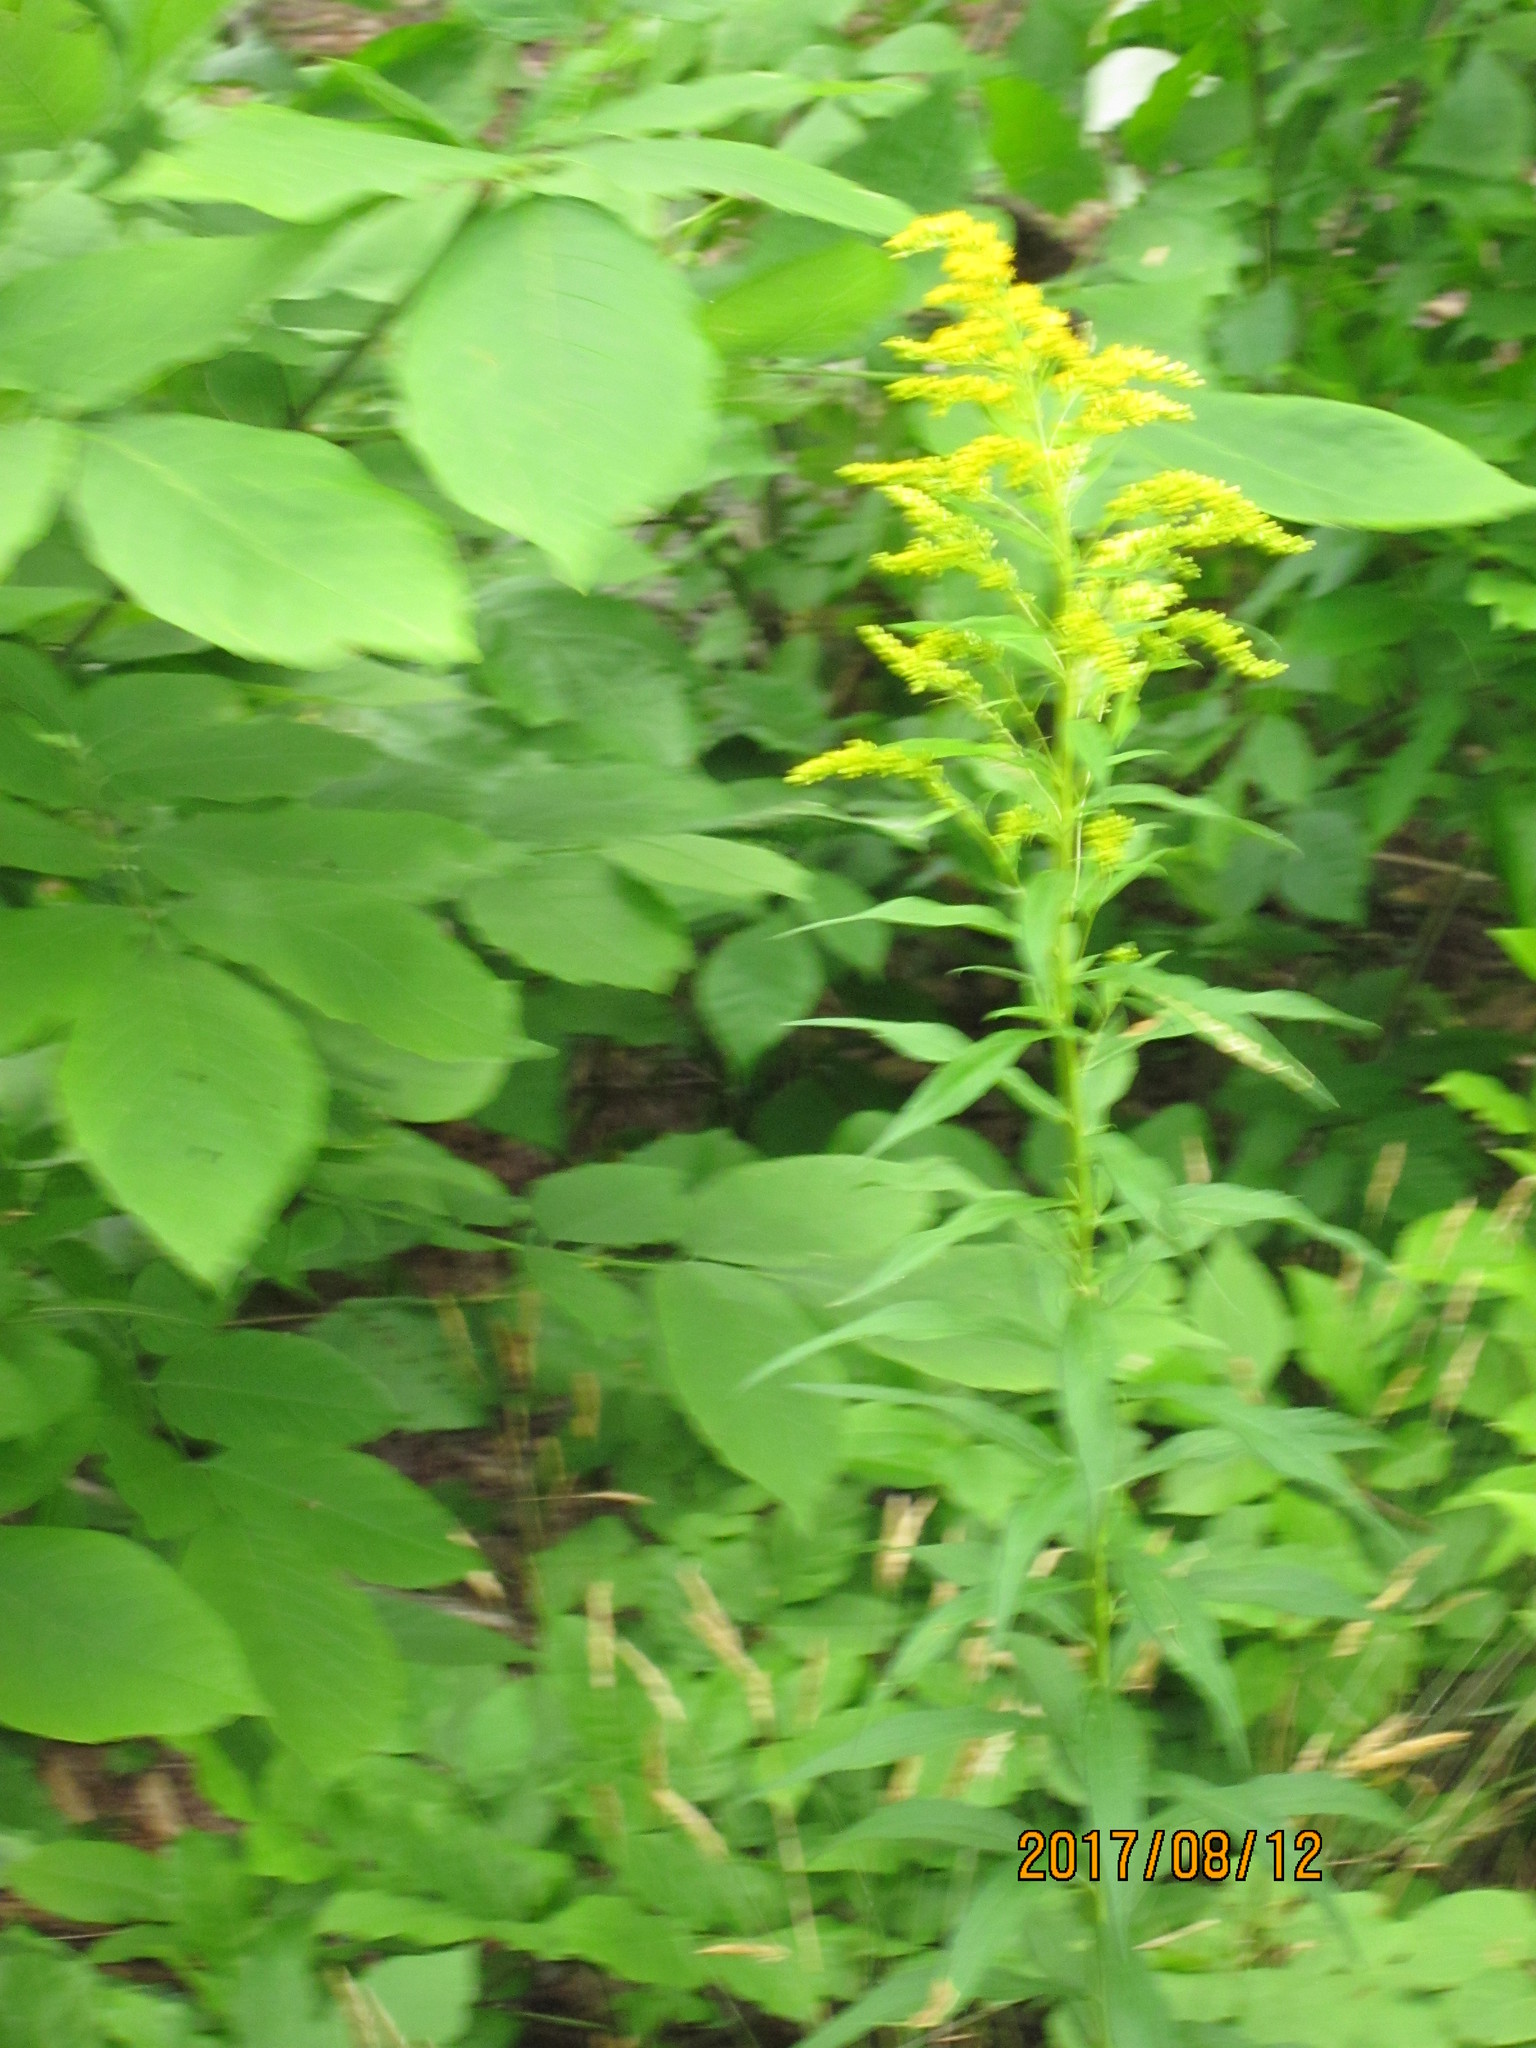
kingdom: Plantae
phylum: Tracheophyta
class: Magnoliopsida
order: Asterales
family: Asteraceae
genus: Solidago
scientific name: Solidago canadensis
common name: Canada goldenrod
